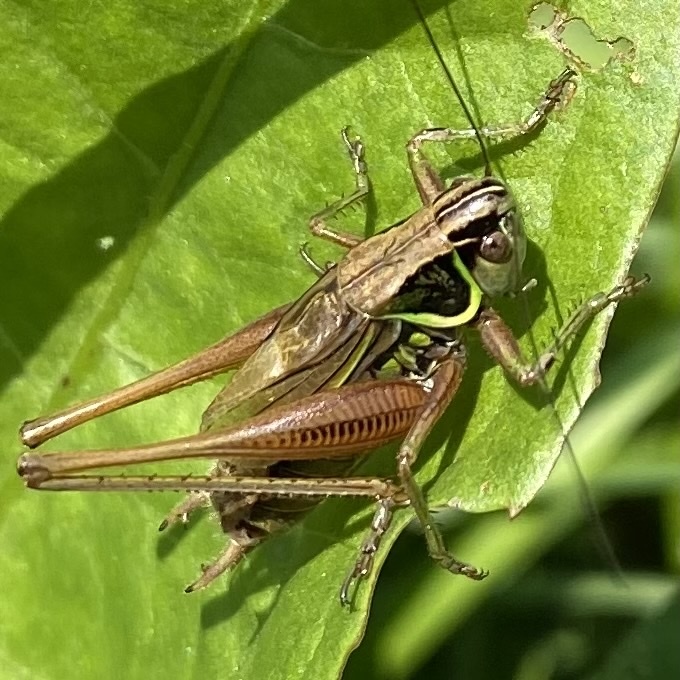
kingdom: Animalia
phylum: Arthropoda
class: Insecta
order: Orthoptera
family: Tettigoniidae
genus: Roeseliana
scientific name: Roeseliana roeselii
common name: Roesel's bush cricket
